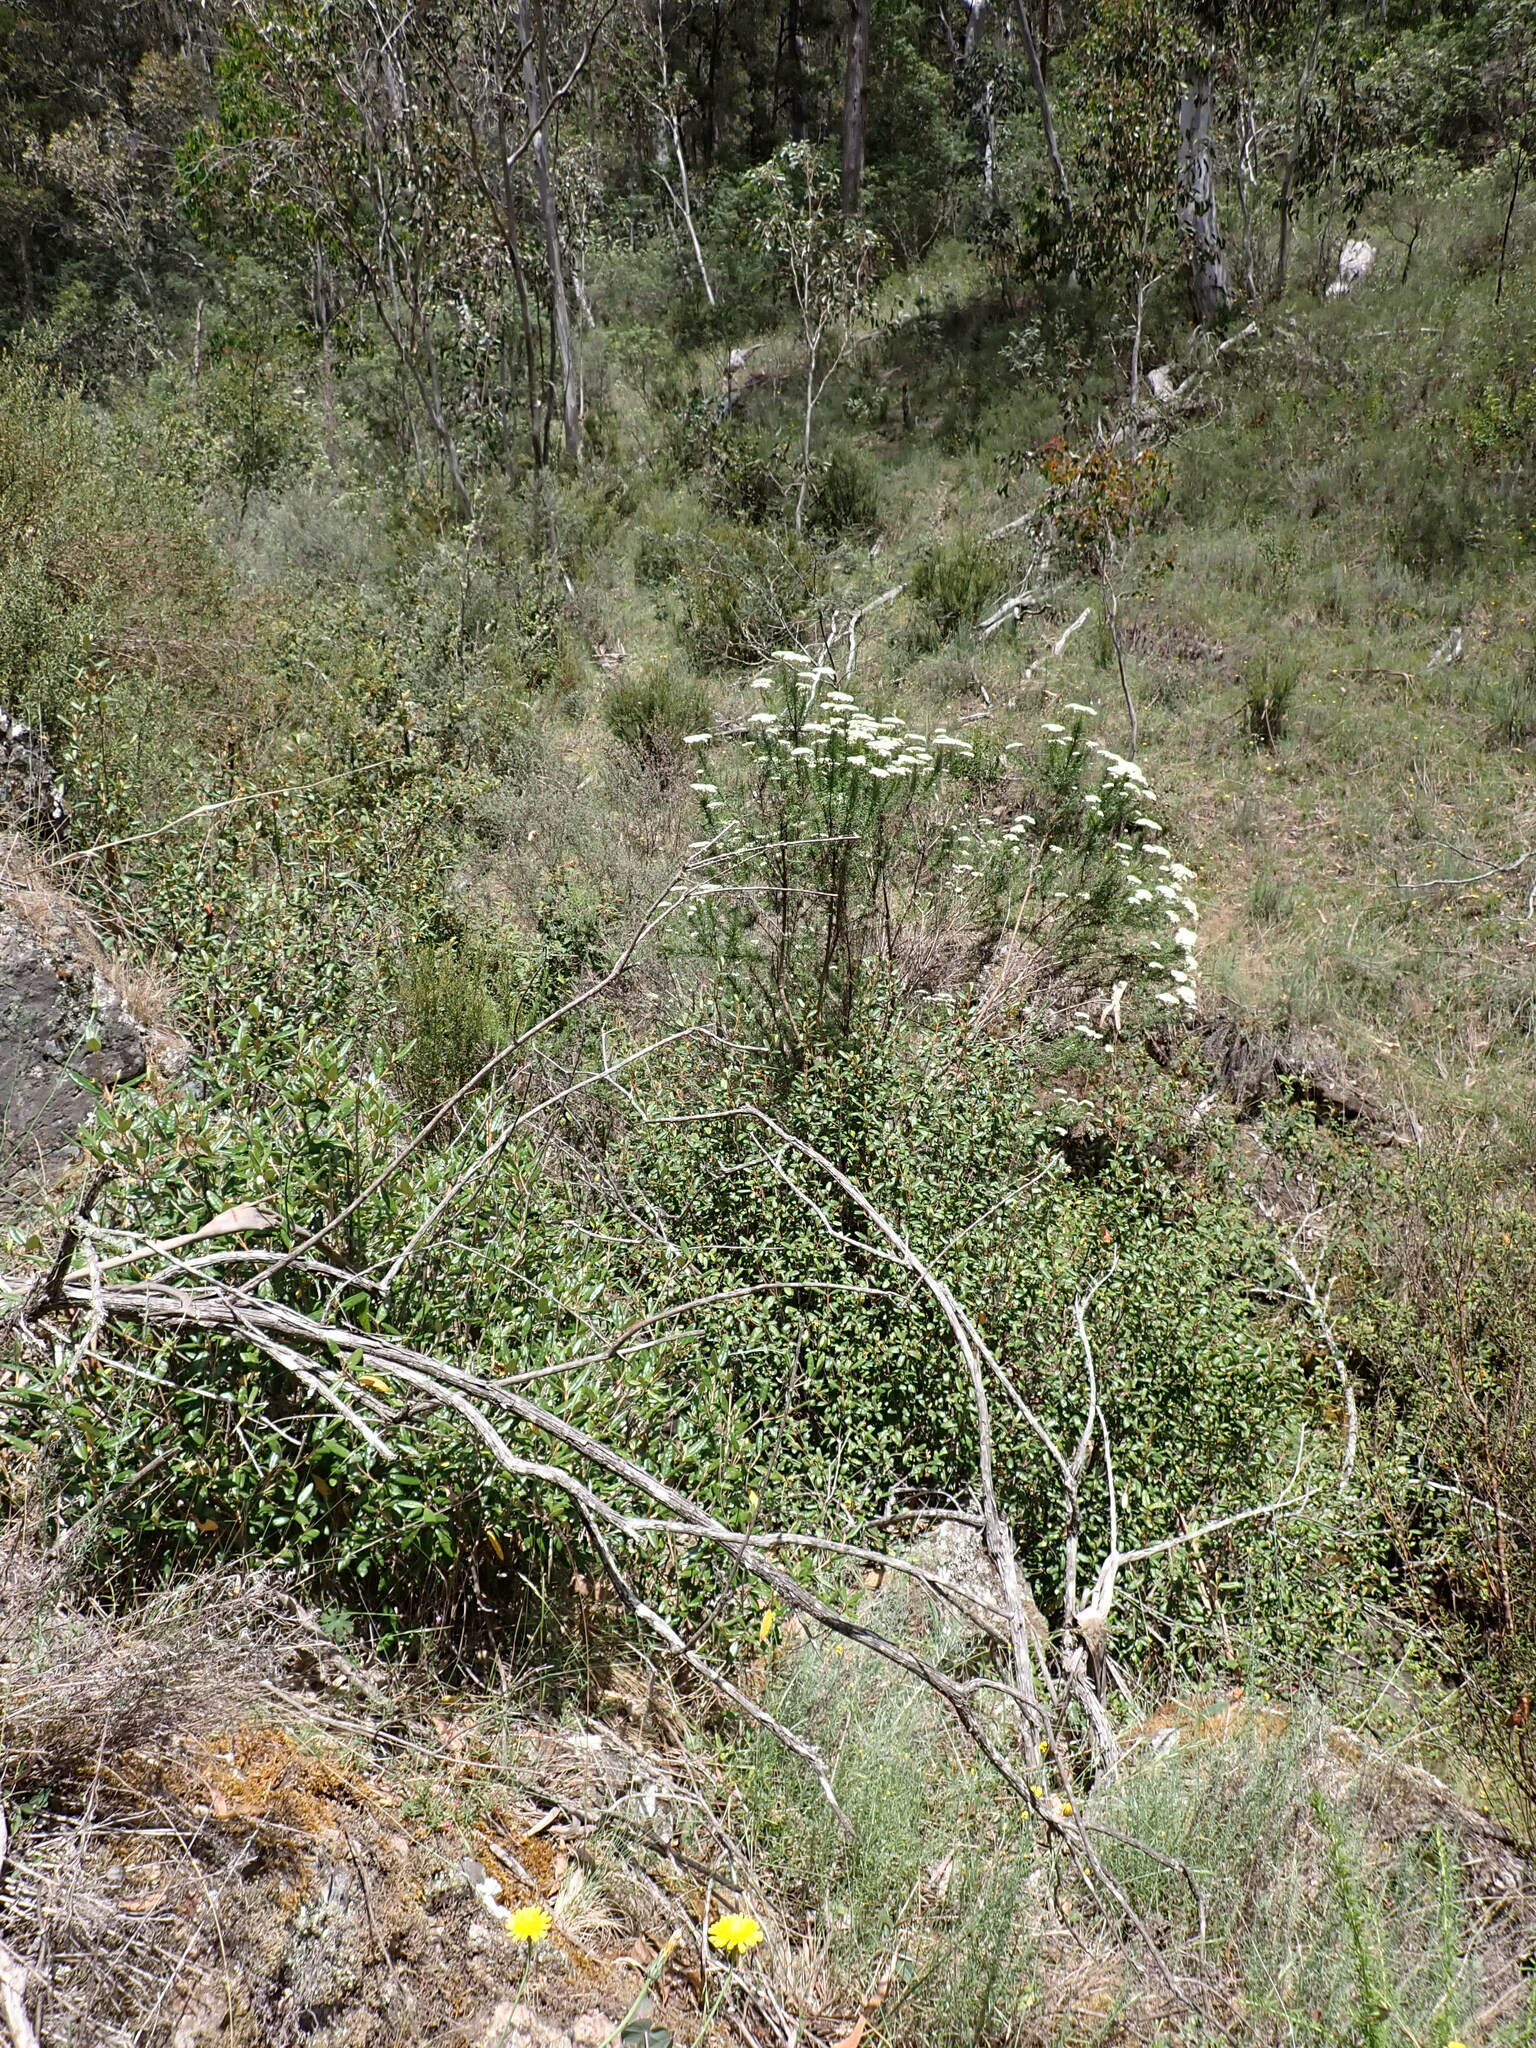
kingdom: Plantae
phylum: Tracheophyta
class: Magnoliopsida
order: Sapindales
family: Rutaceae
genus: Correa
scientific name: Correa lawrenceana
